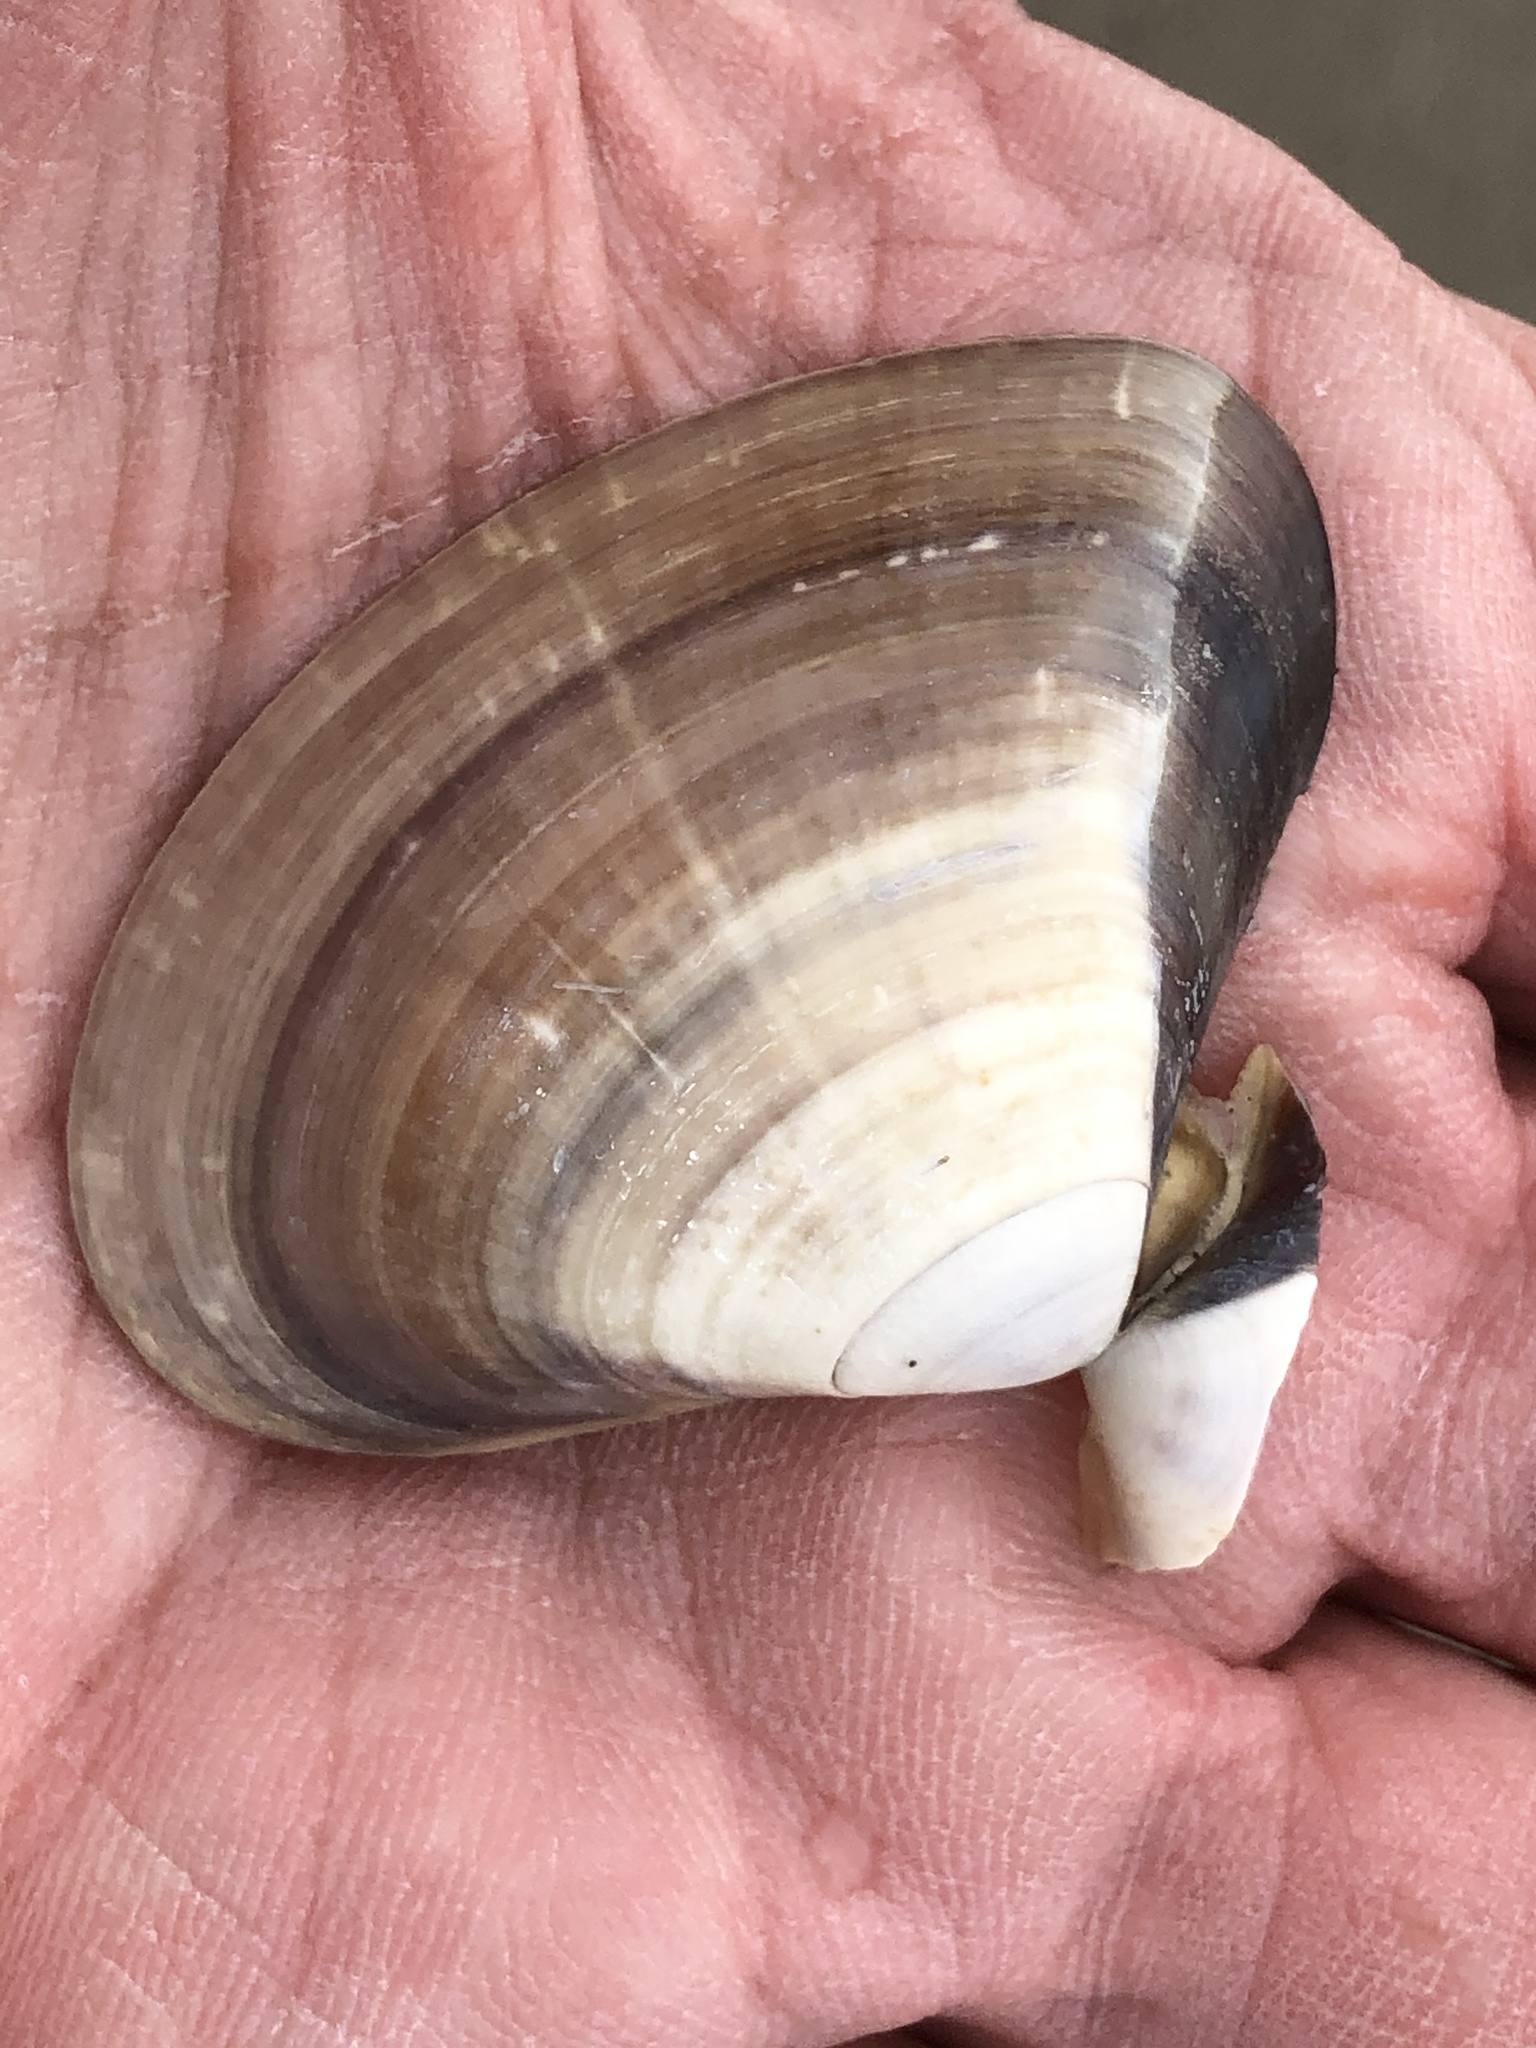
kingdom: Animalia
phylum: Mollusca
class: Bivalvia
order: Venerida
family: Veneridae
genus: Tivela
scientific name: Tivela stultorum
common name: Pismo clam
